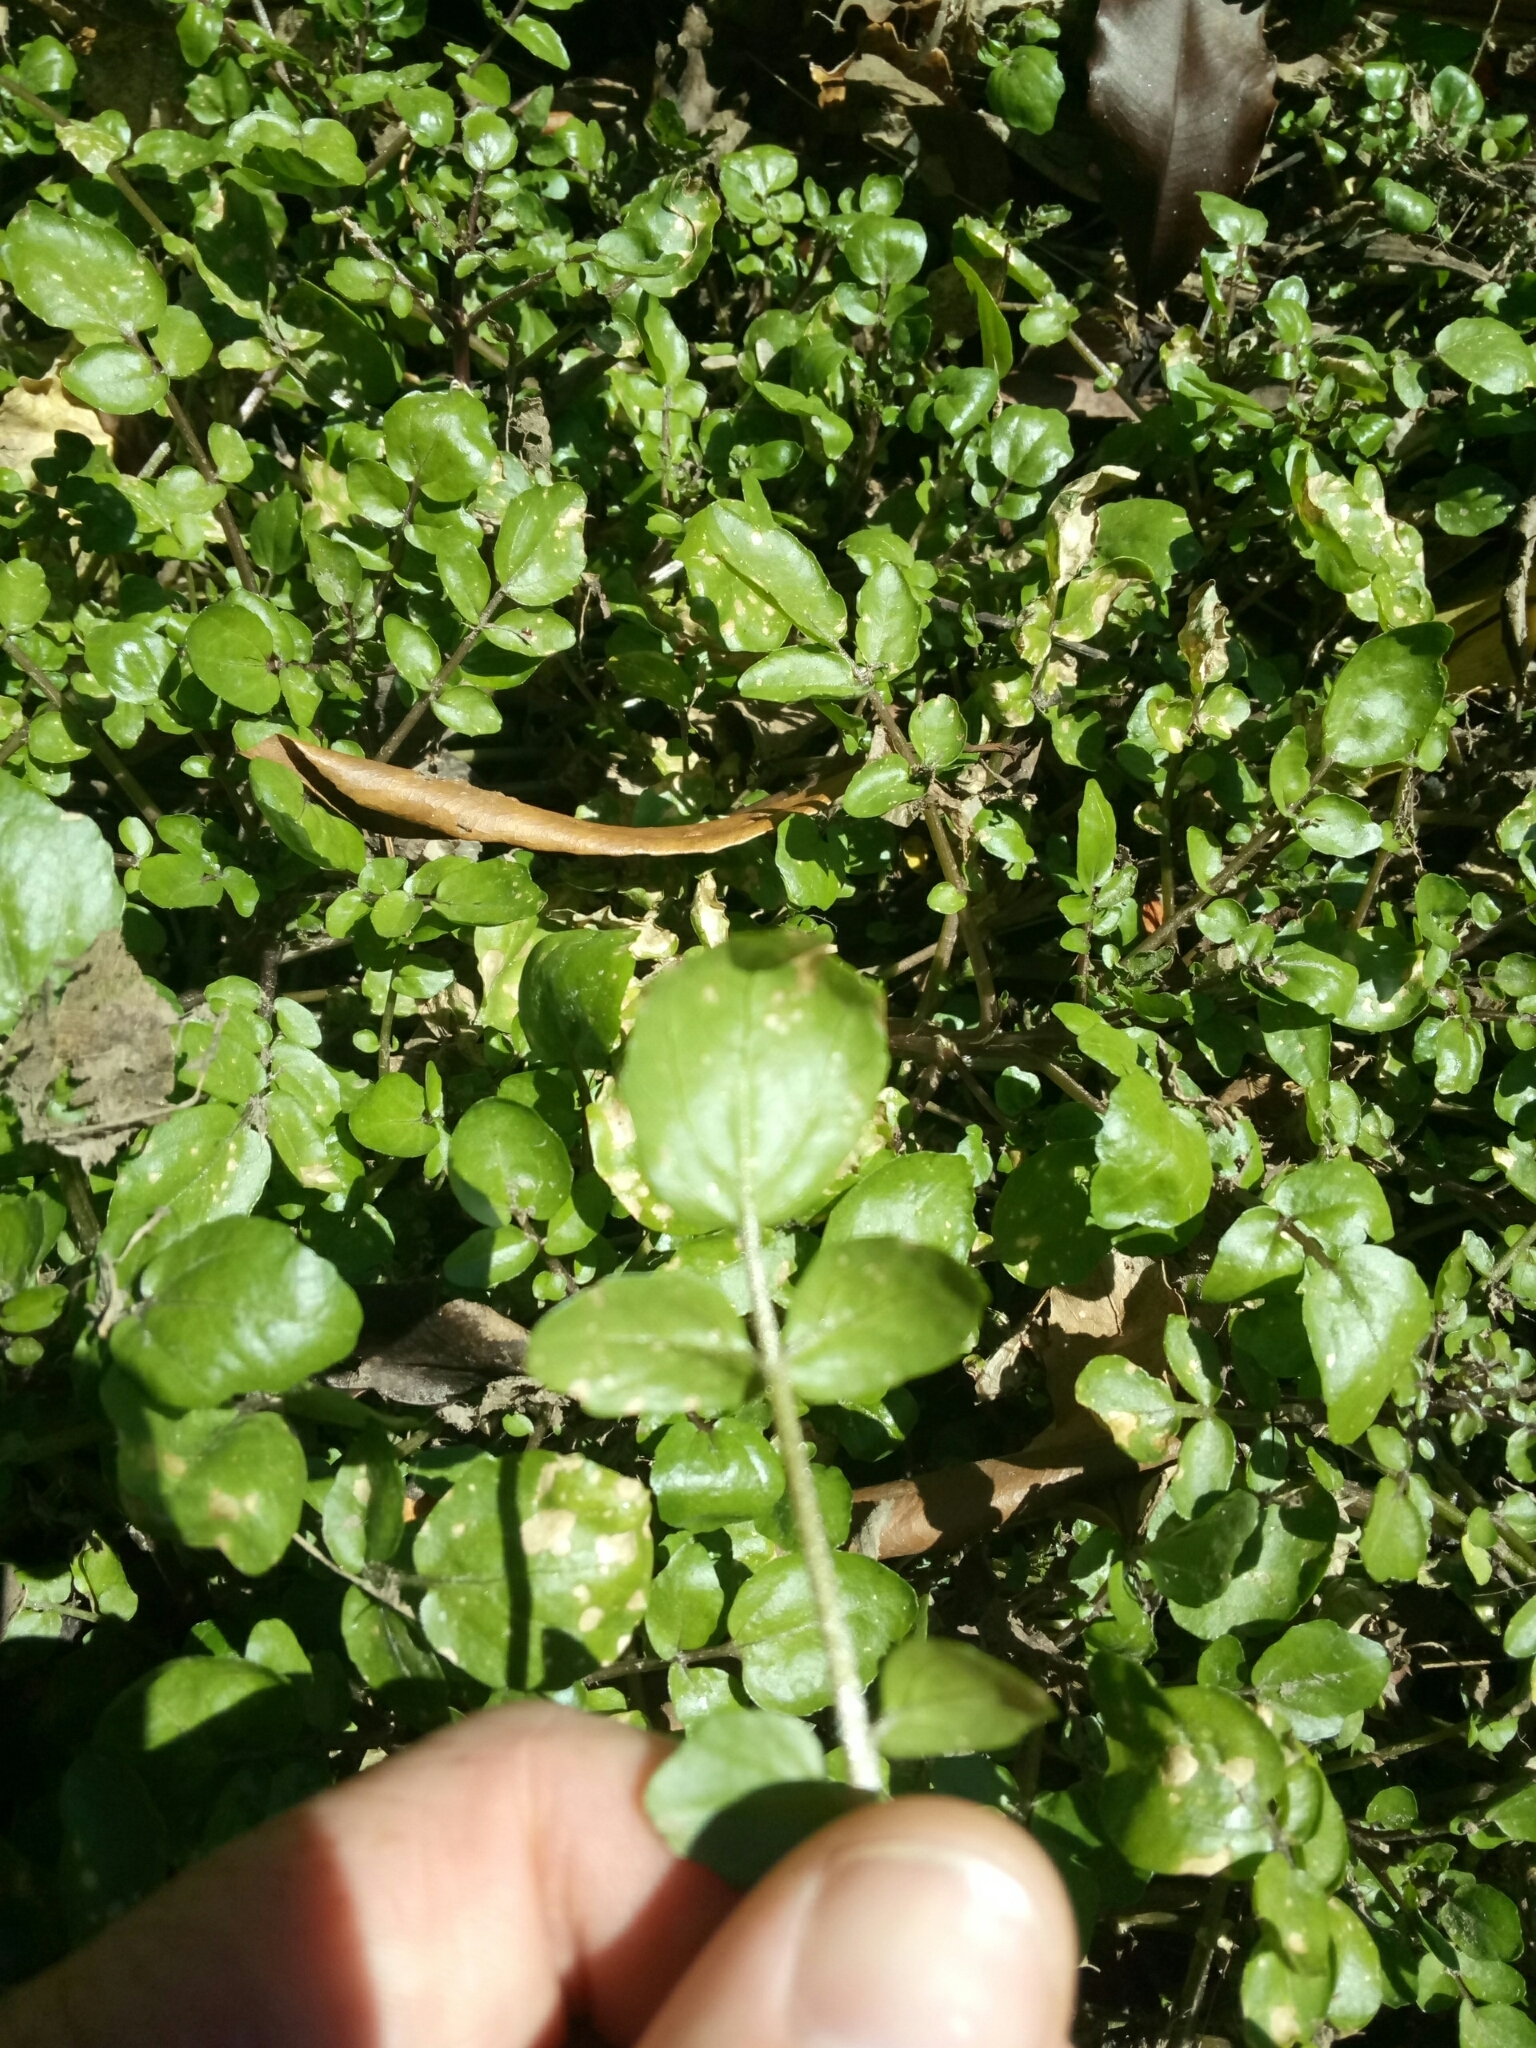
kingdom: Plantae
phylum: Tracheophyta
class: Magnoliopsida
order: Brassicales
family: Brassicaceae
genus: Nasturtium
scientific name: Nasturtium officinale
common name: Watercress
